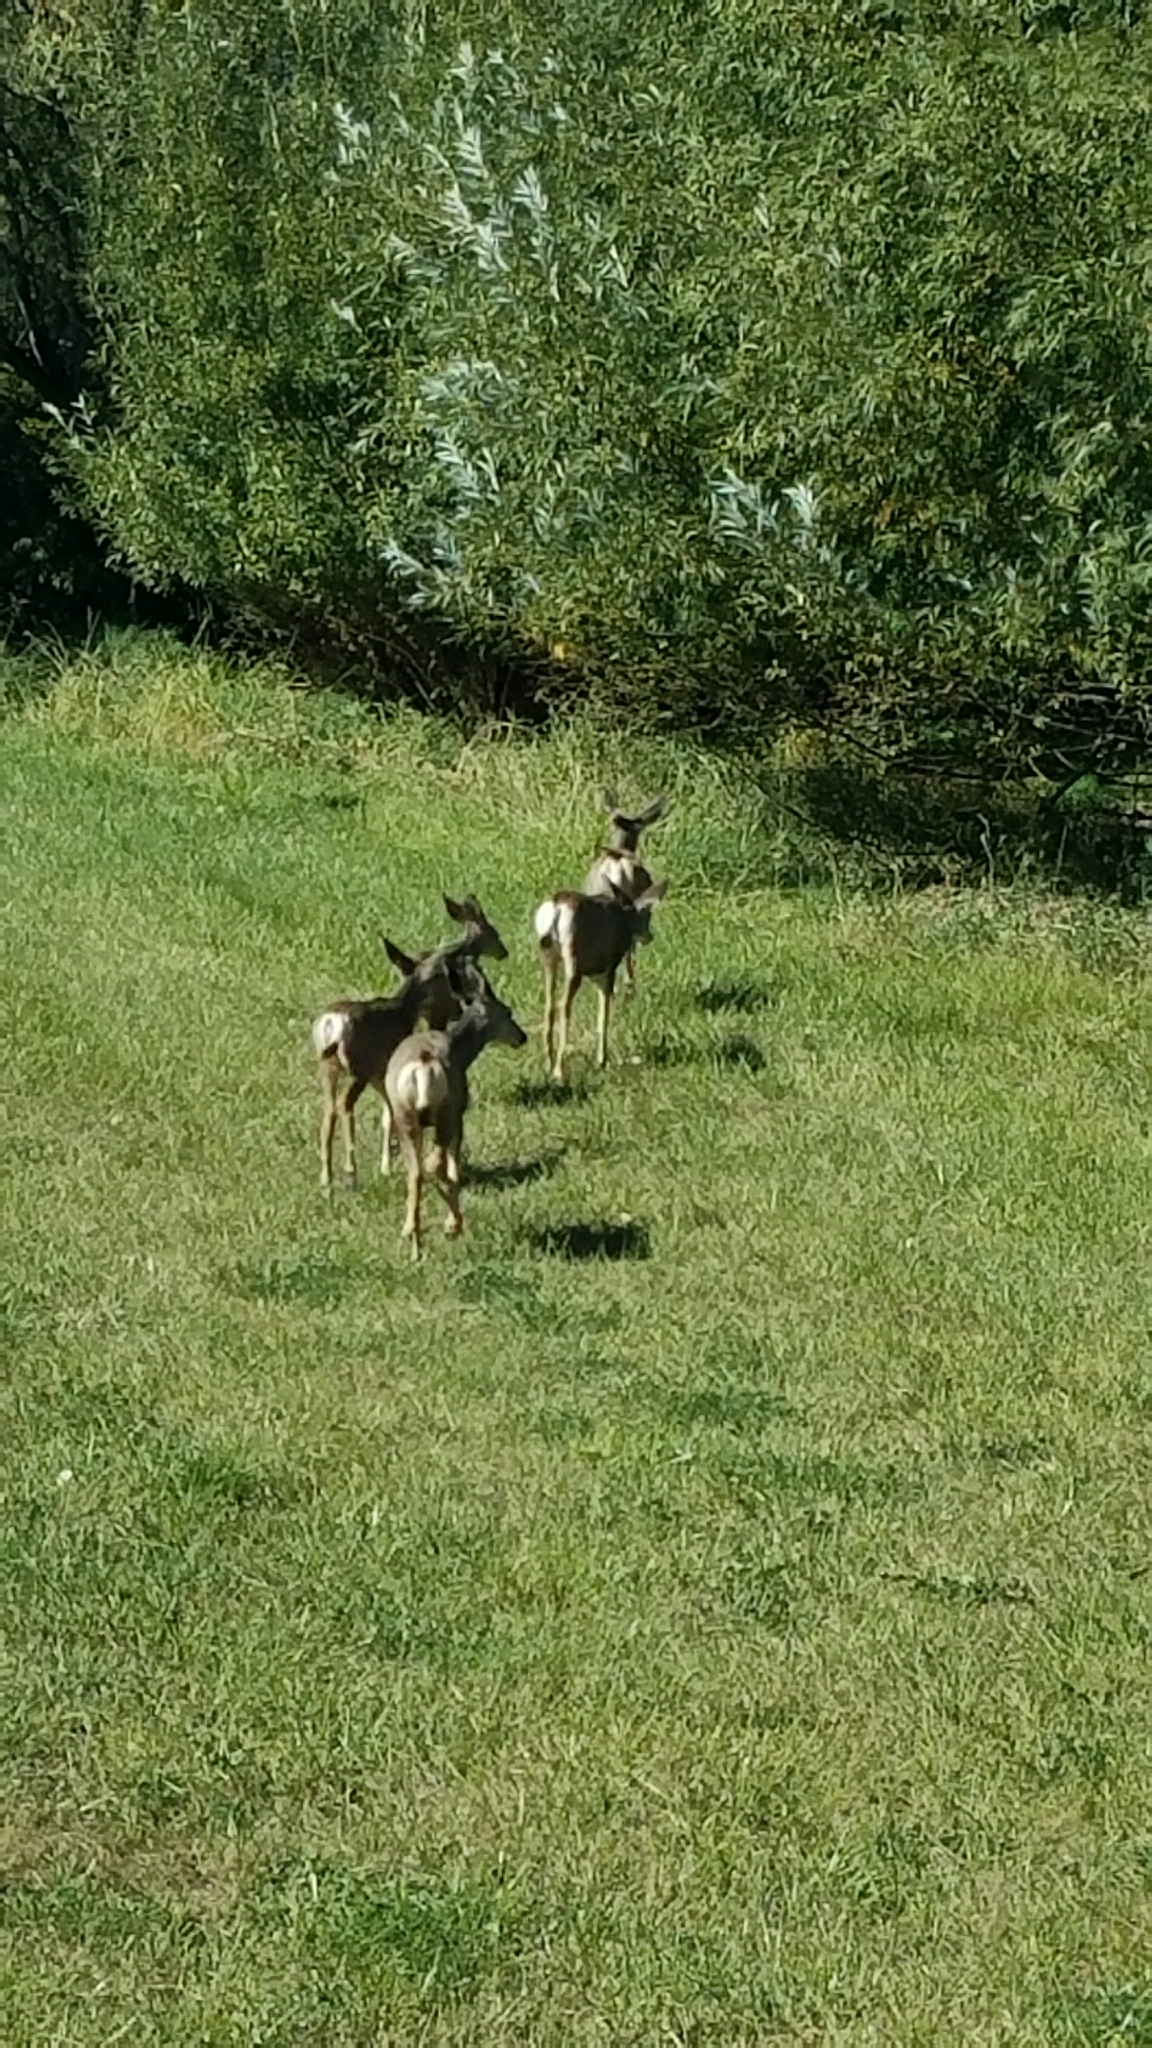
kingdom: Animalia
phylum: Chordata
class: Mammalia
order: Artiodactyla
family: Cervidae
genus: Odocoileus
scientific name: Odocoileus hemionus
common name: Mule deer
